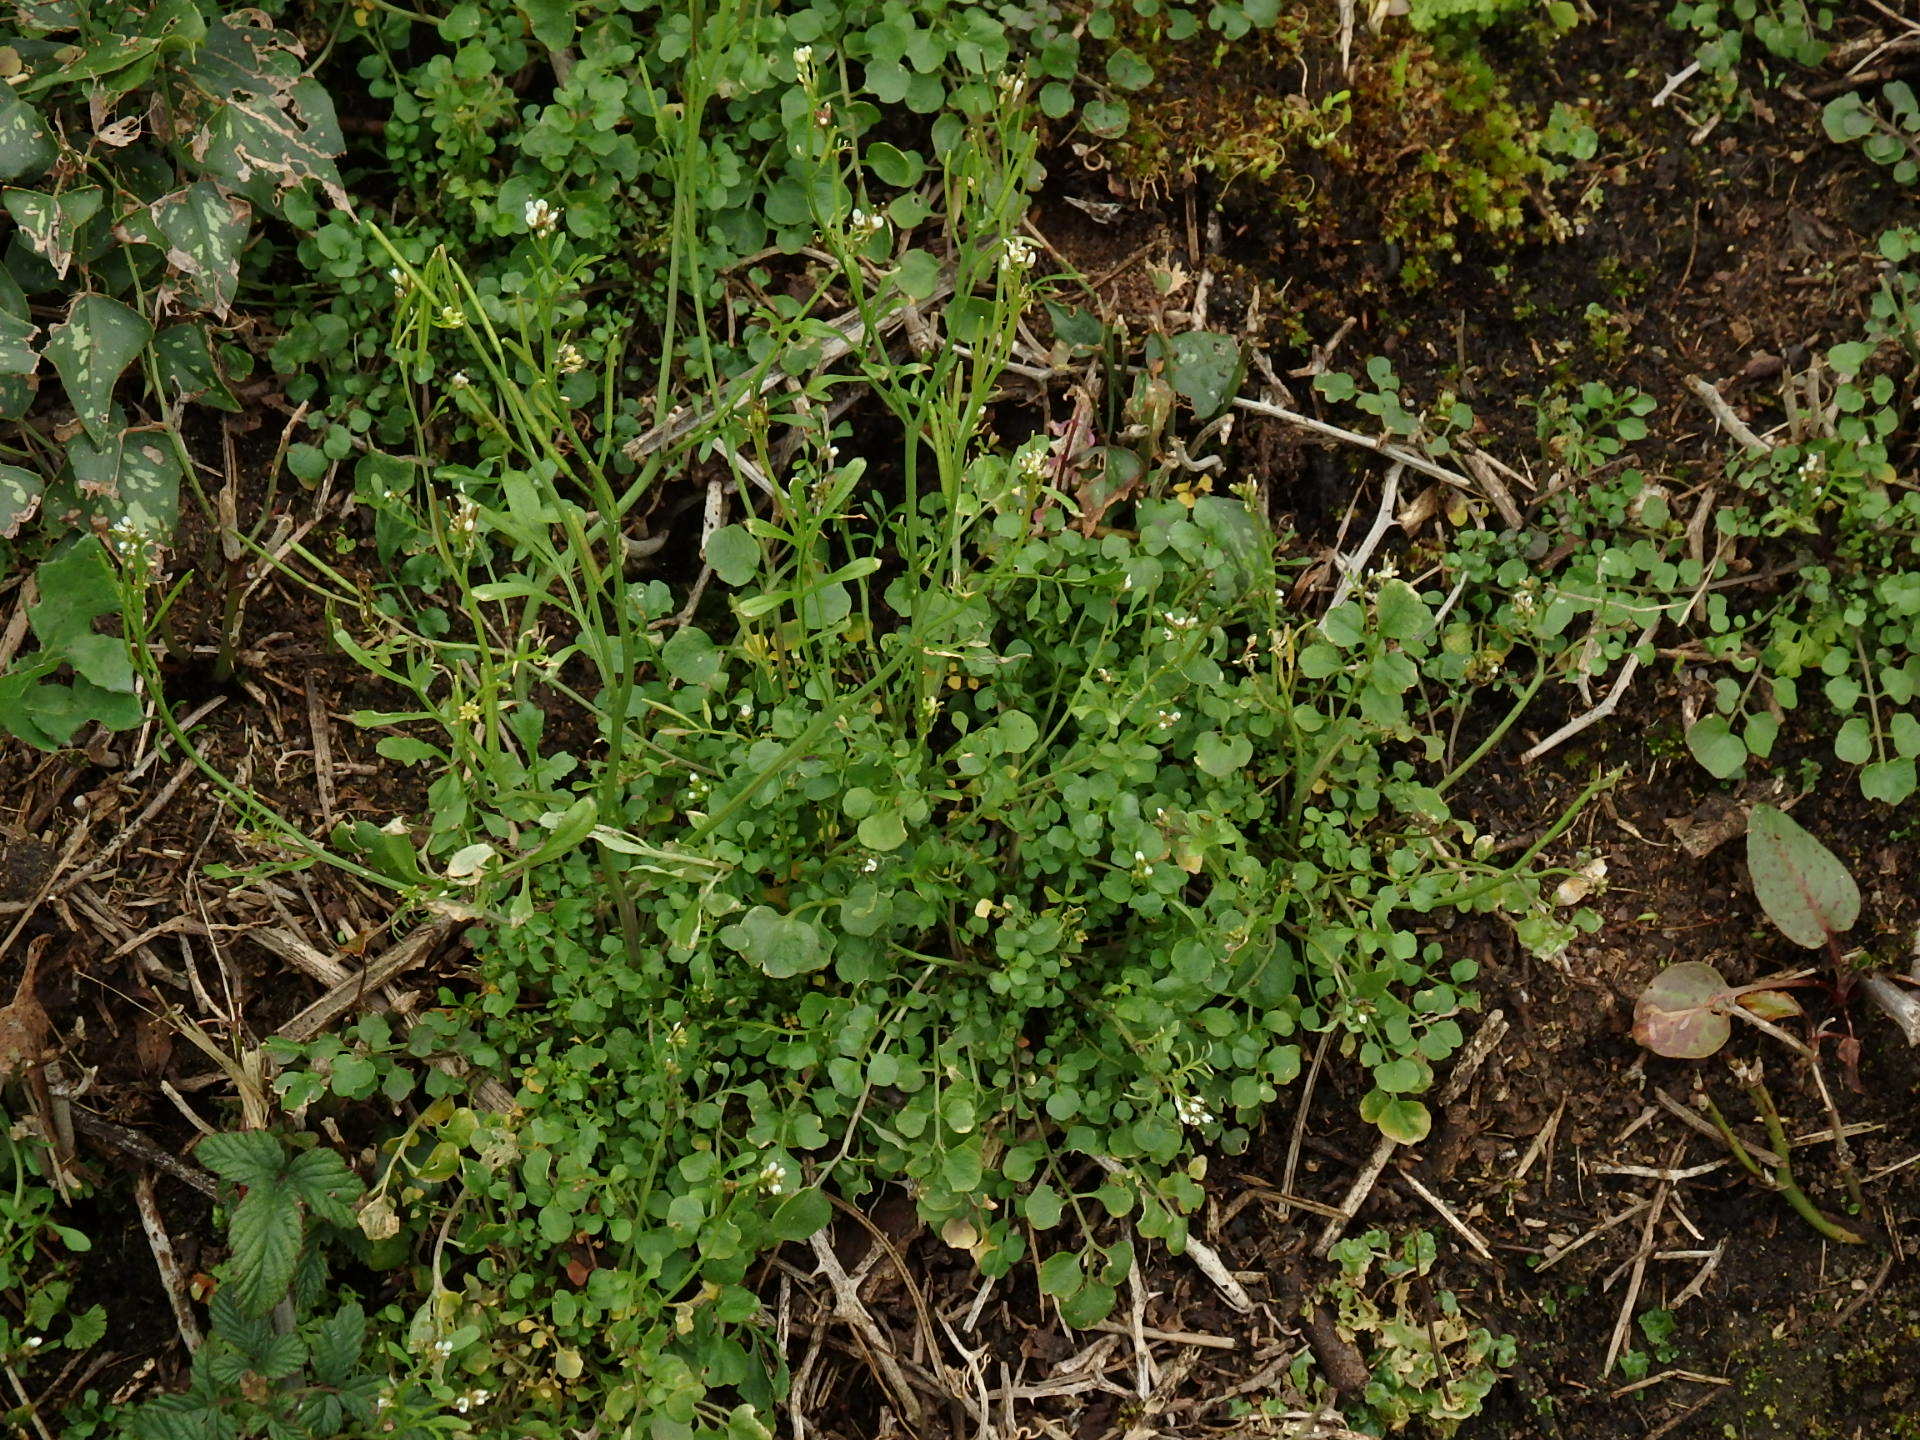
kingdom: Plantae
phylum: Tracheophyta
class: Magnoliopsida
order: Brassicales
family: Brassicaceae
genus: Cardamine
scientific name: Cardamine hirsuta
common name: Hairy bittercress
